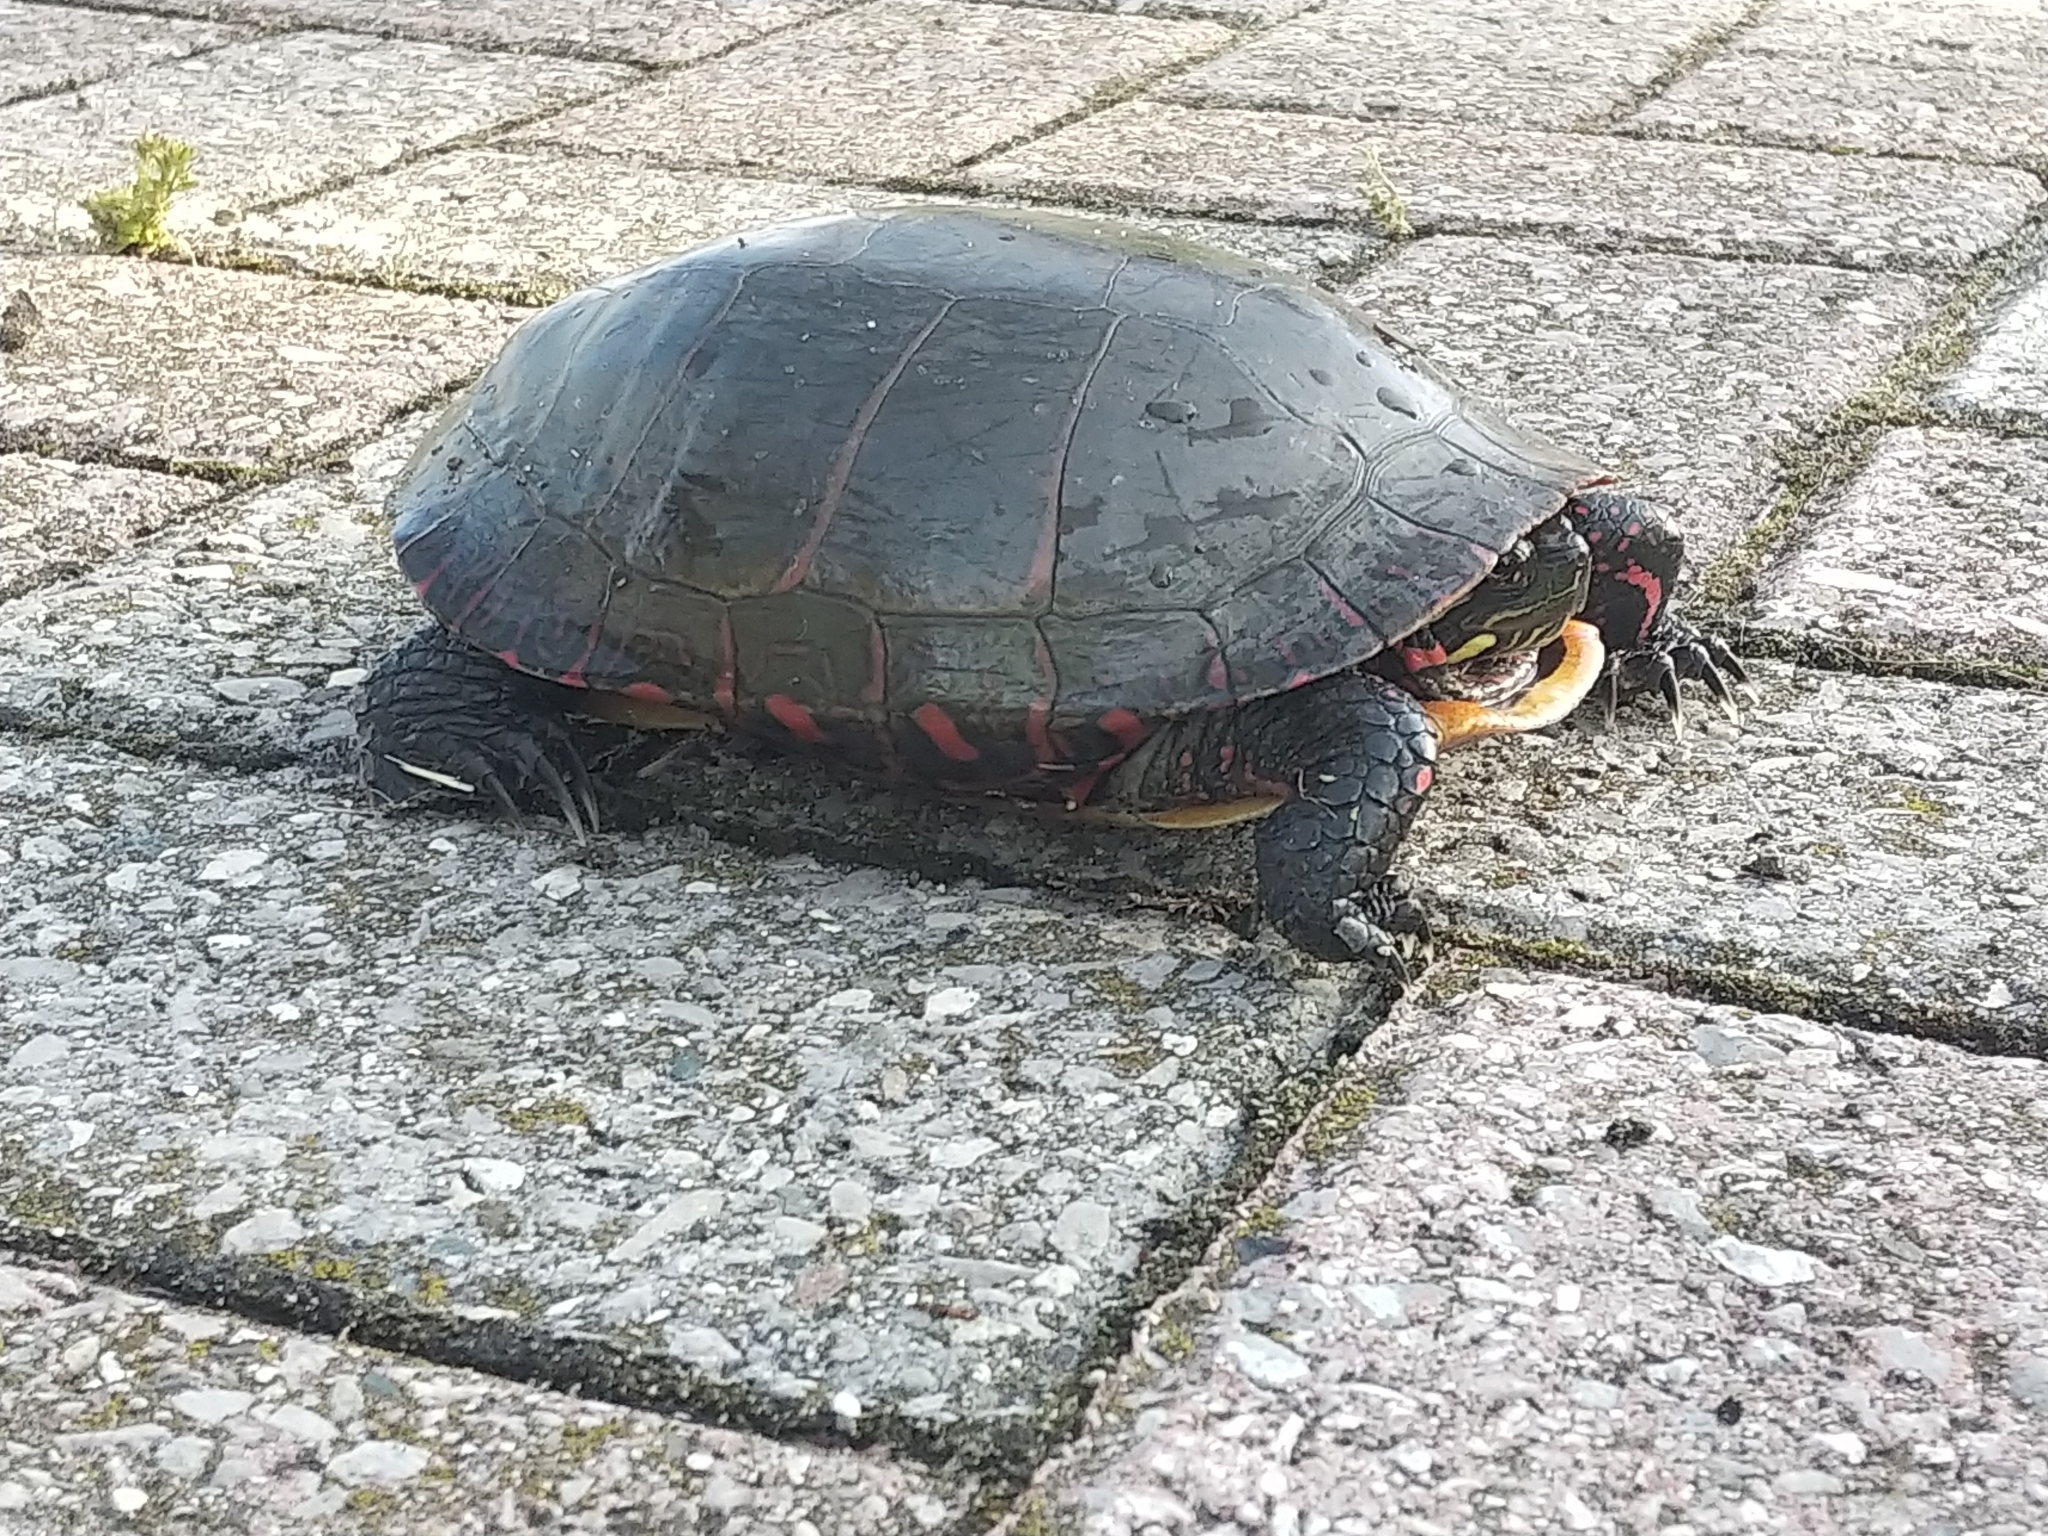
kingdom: Animalia
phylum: Chordata
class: Testudines
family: Emydidae
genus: Chrysemys
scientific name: Chrysemys picta
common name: Painted turtle
